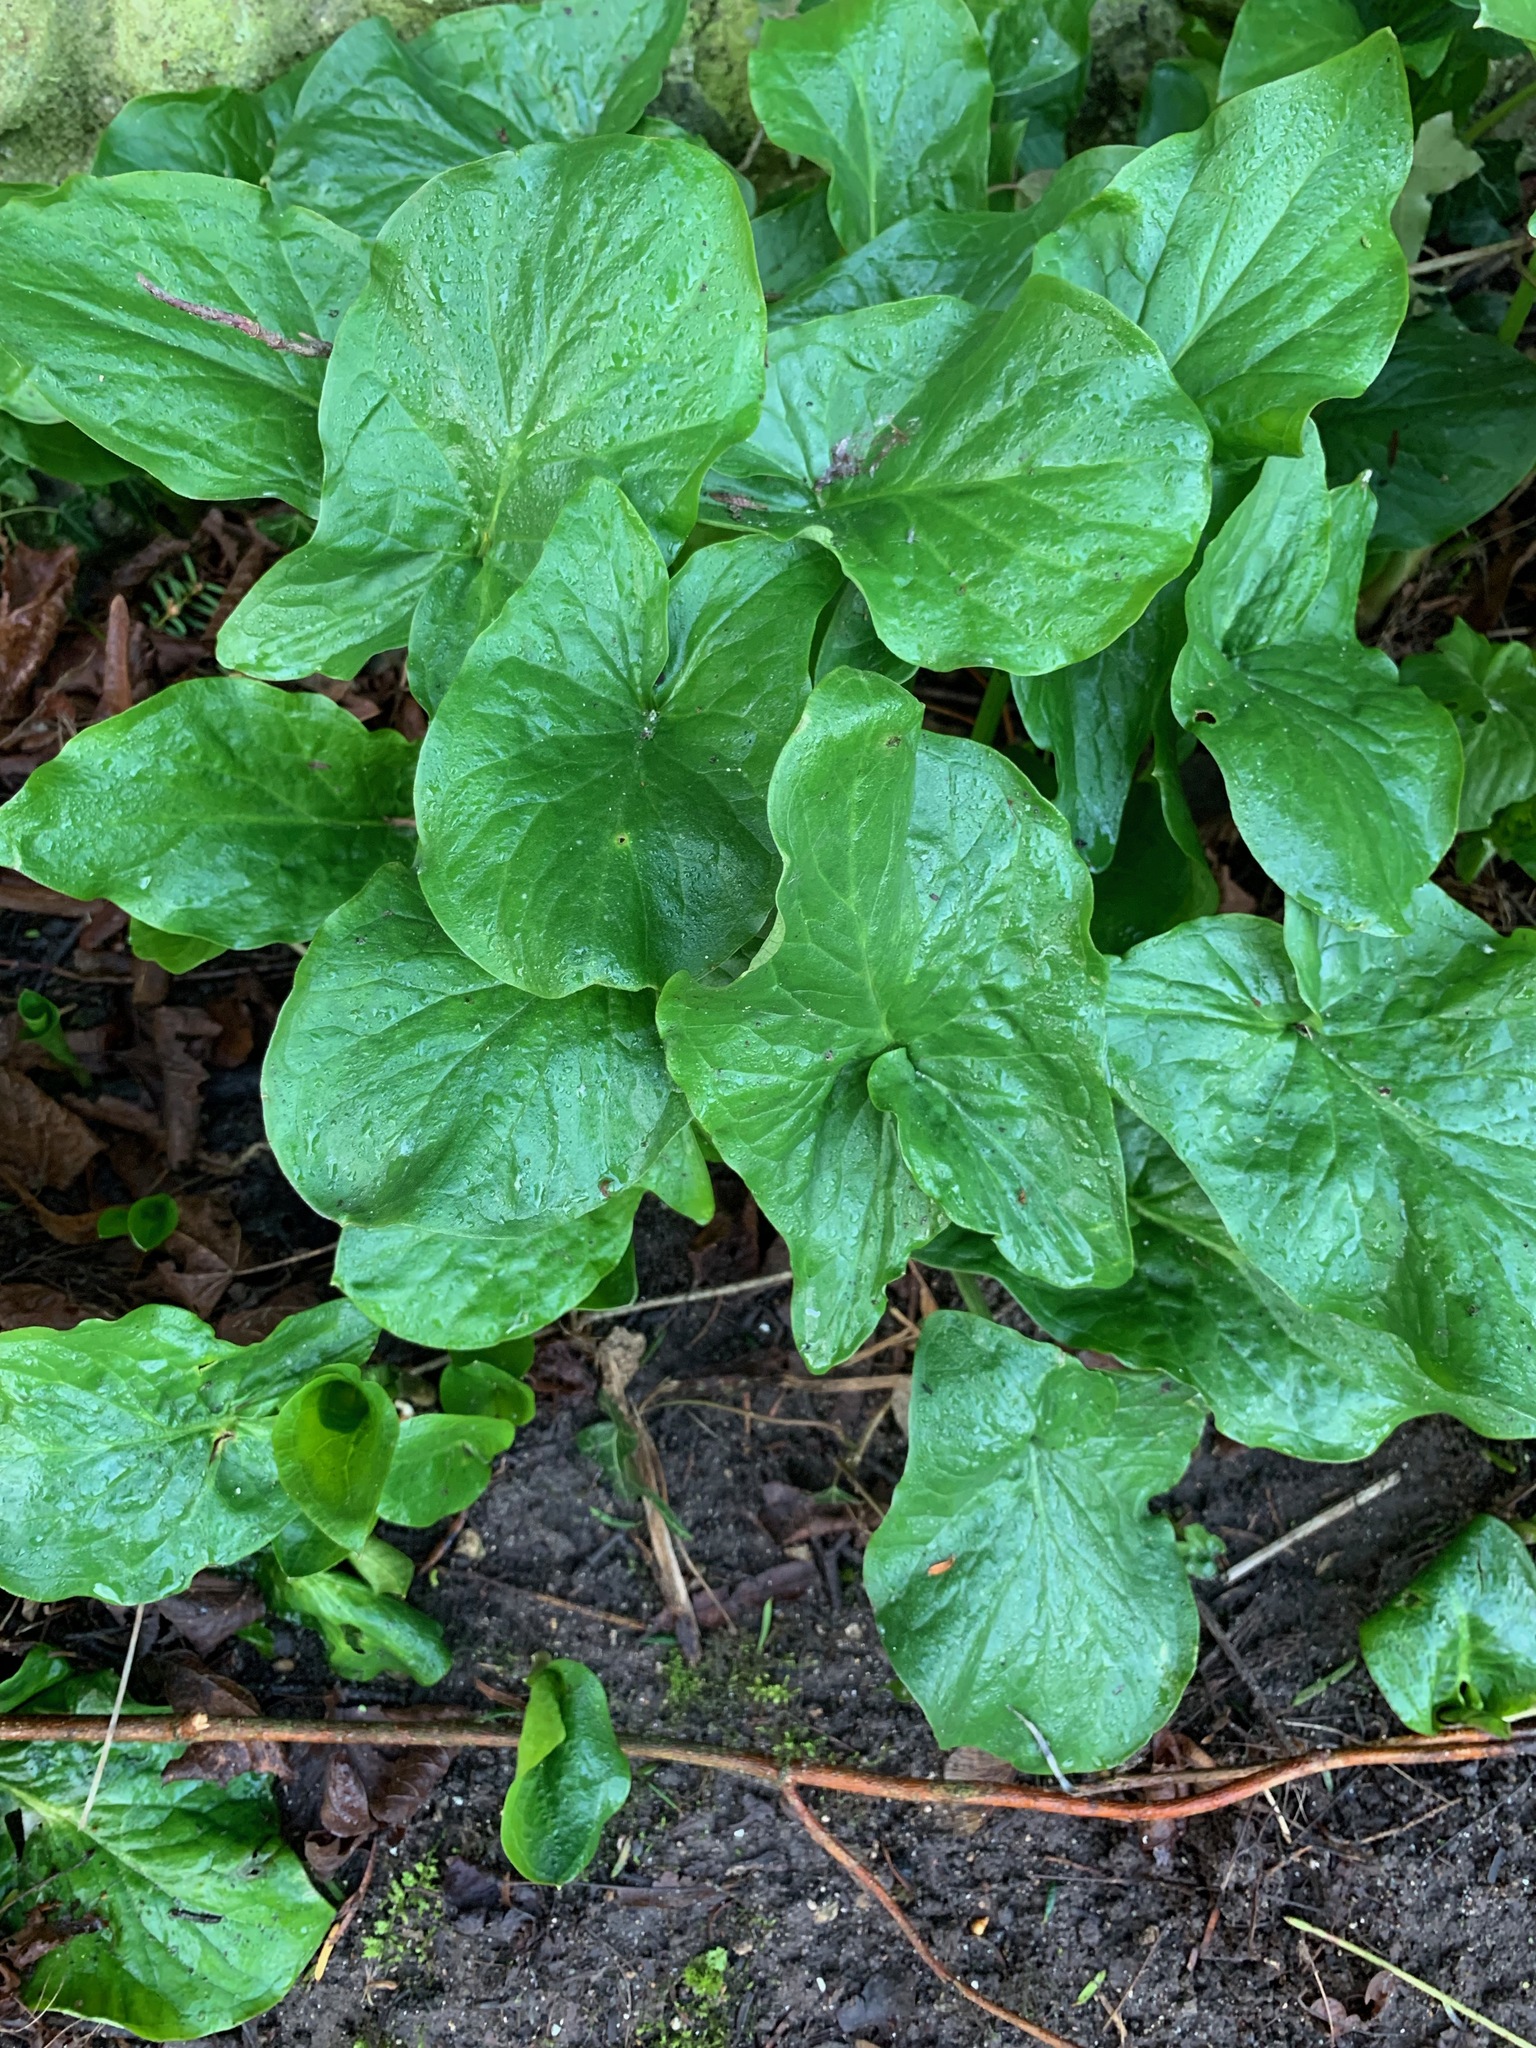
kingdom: Plantae
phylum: Tracheophyta
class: Liliopsida
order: Alismatales
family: Araceae
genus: Arum
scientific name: Arum maculatum
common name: Lords-and-ladies
